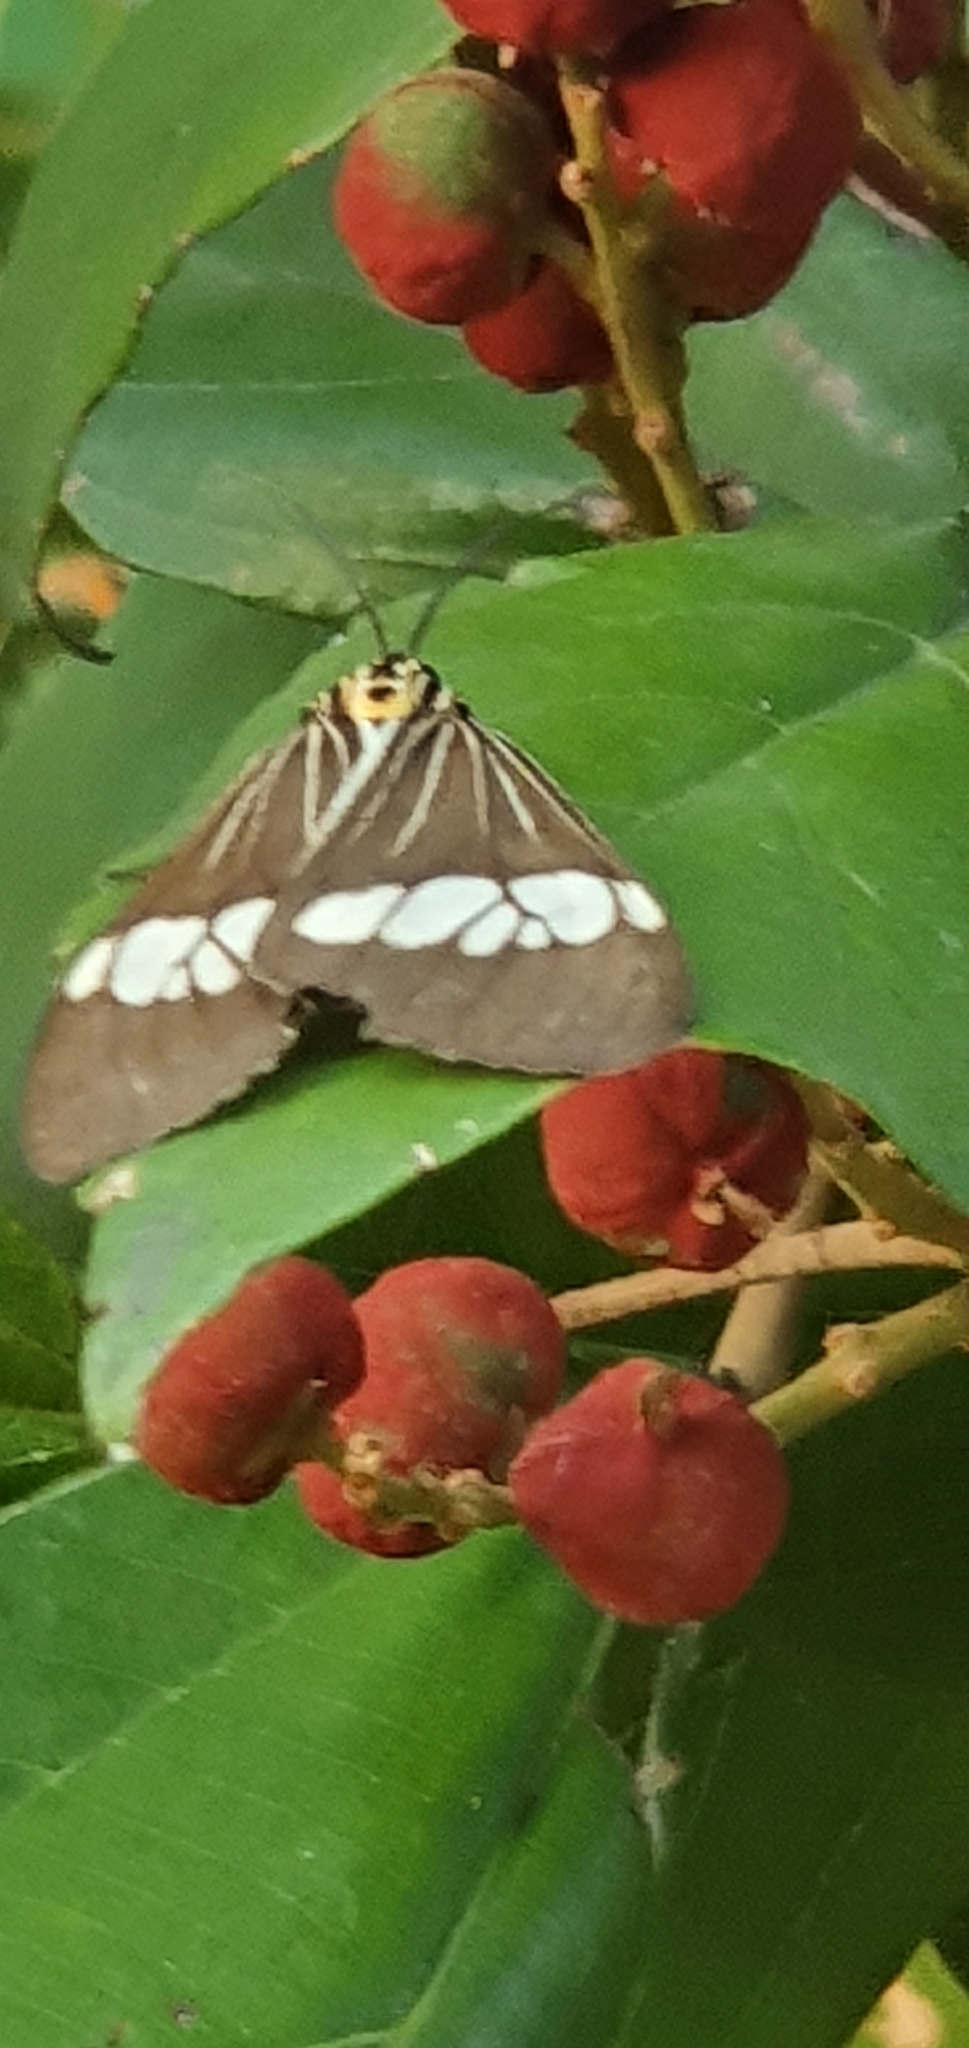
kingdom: Animalia
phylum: Arthropoda
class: Insecta
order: Lepidoptera
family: Erebidae
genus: Nyctemera
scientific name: Nyctemera baulus
